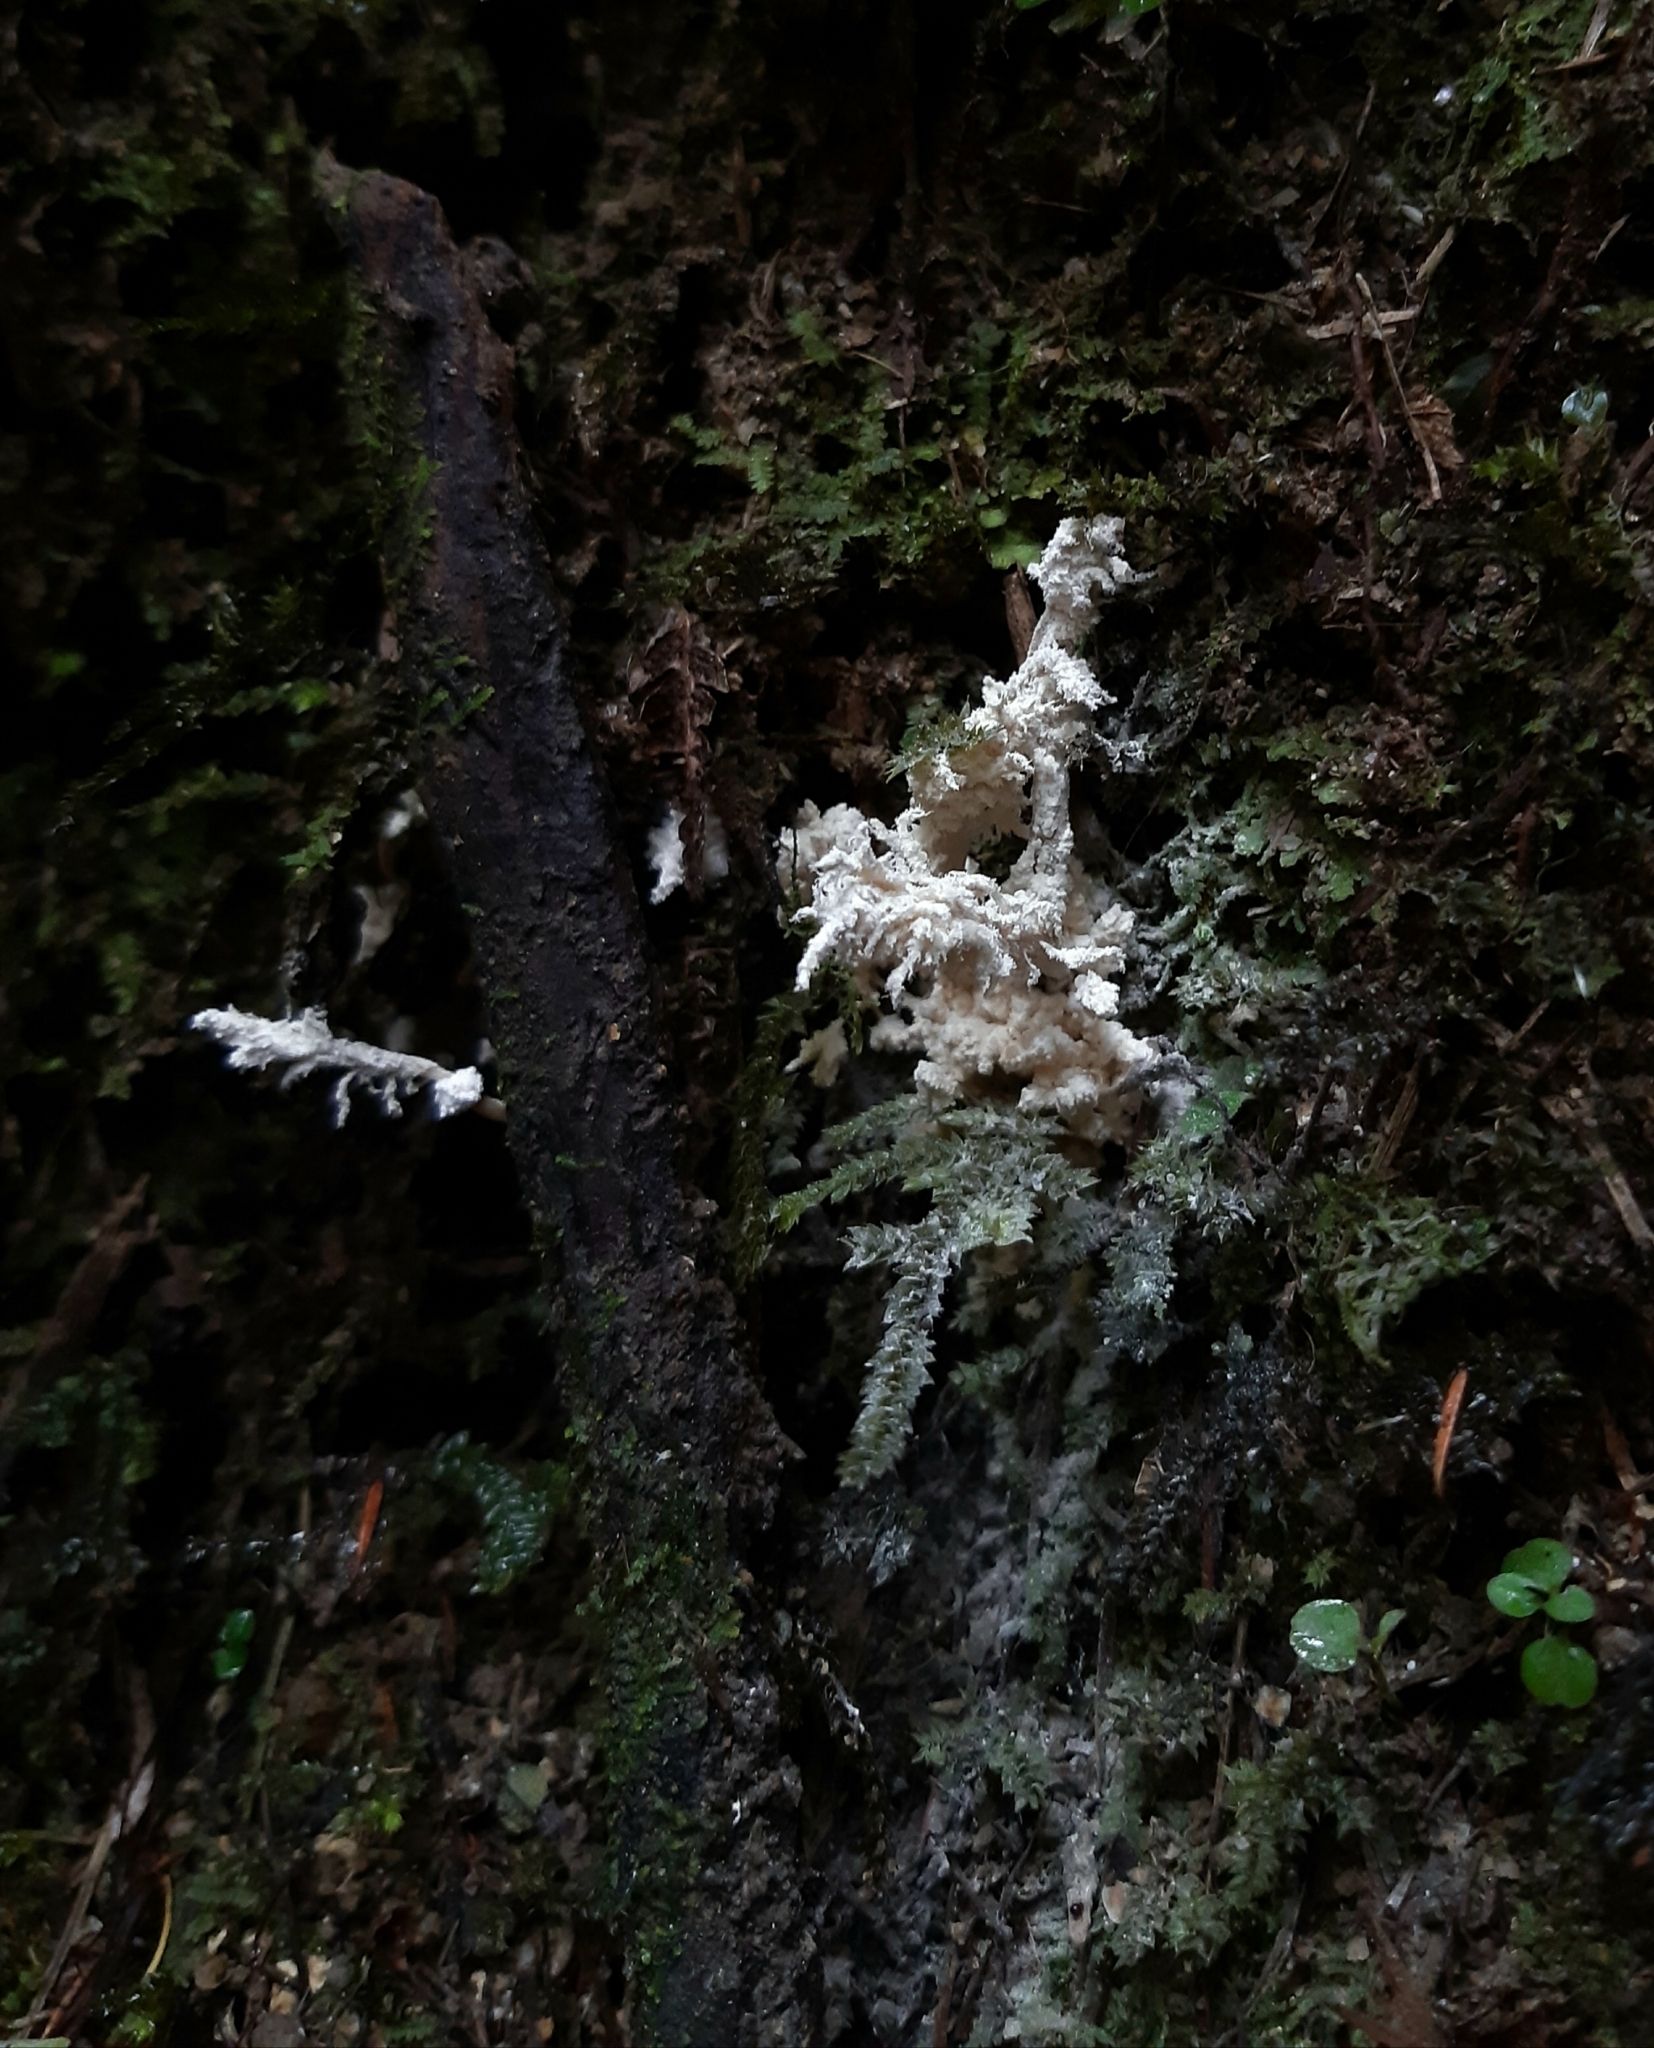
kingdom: Fungi
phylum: Ascomycota
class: Sordariomycetes
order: Hypocreales
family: Cordycipitaceae
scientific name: Cordycipitaceae
